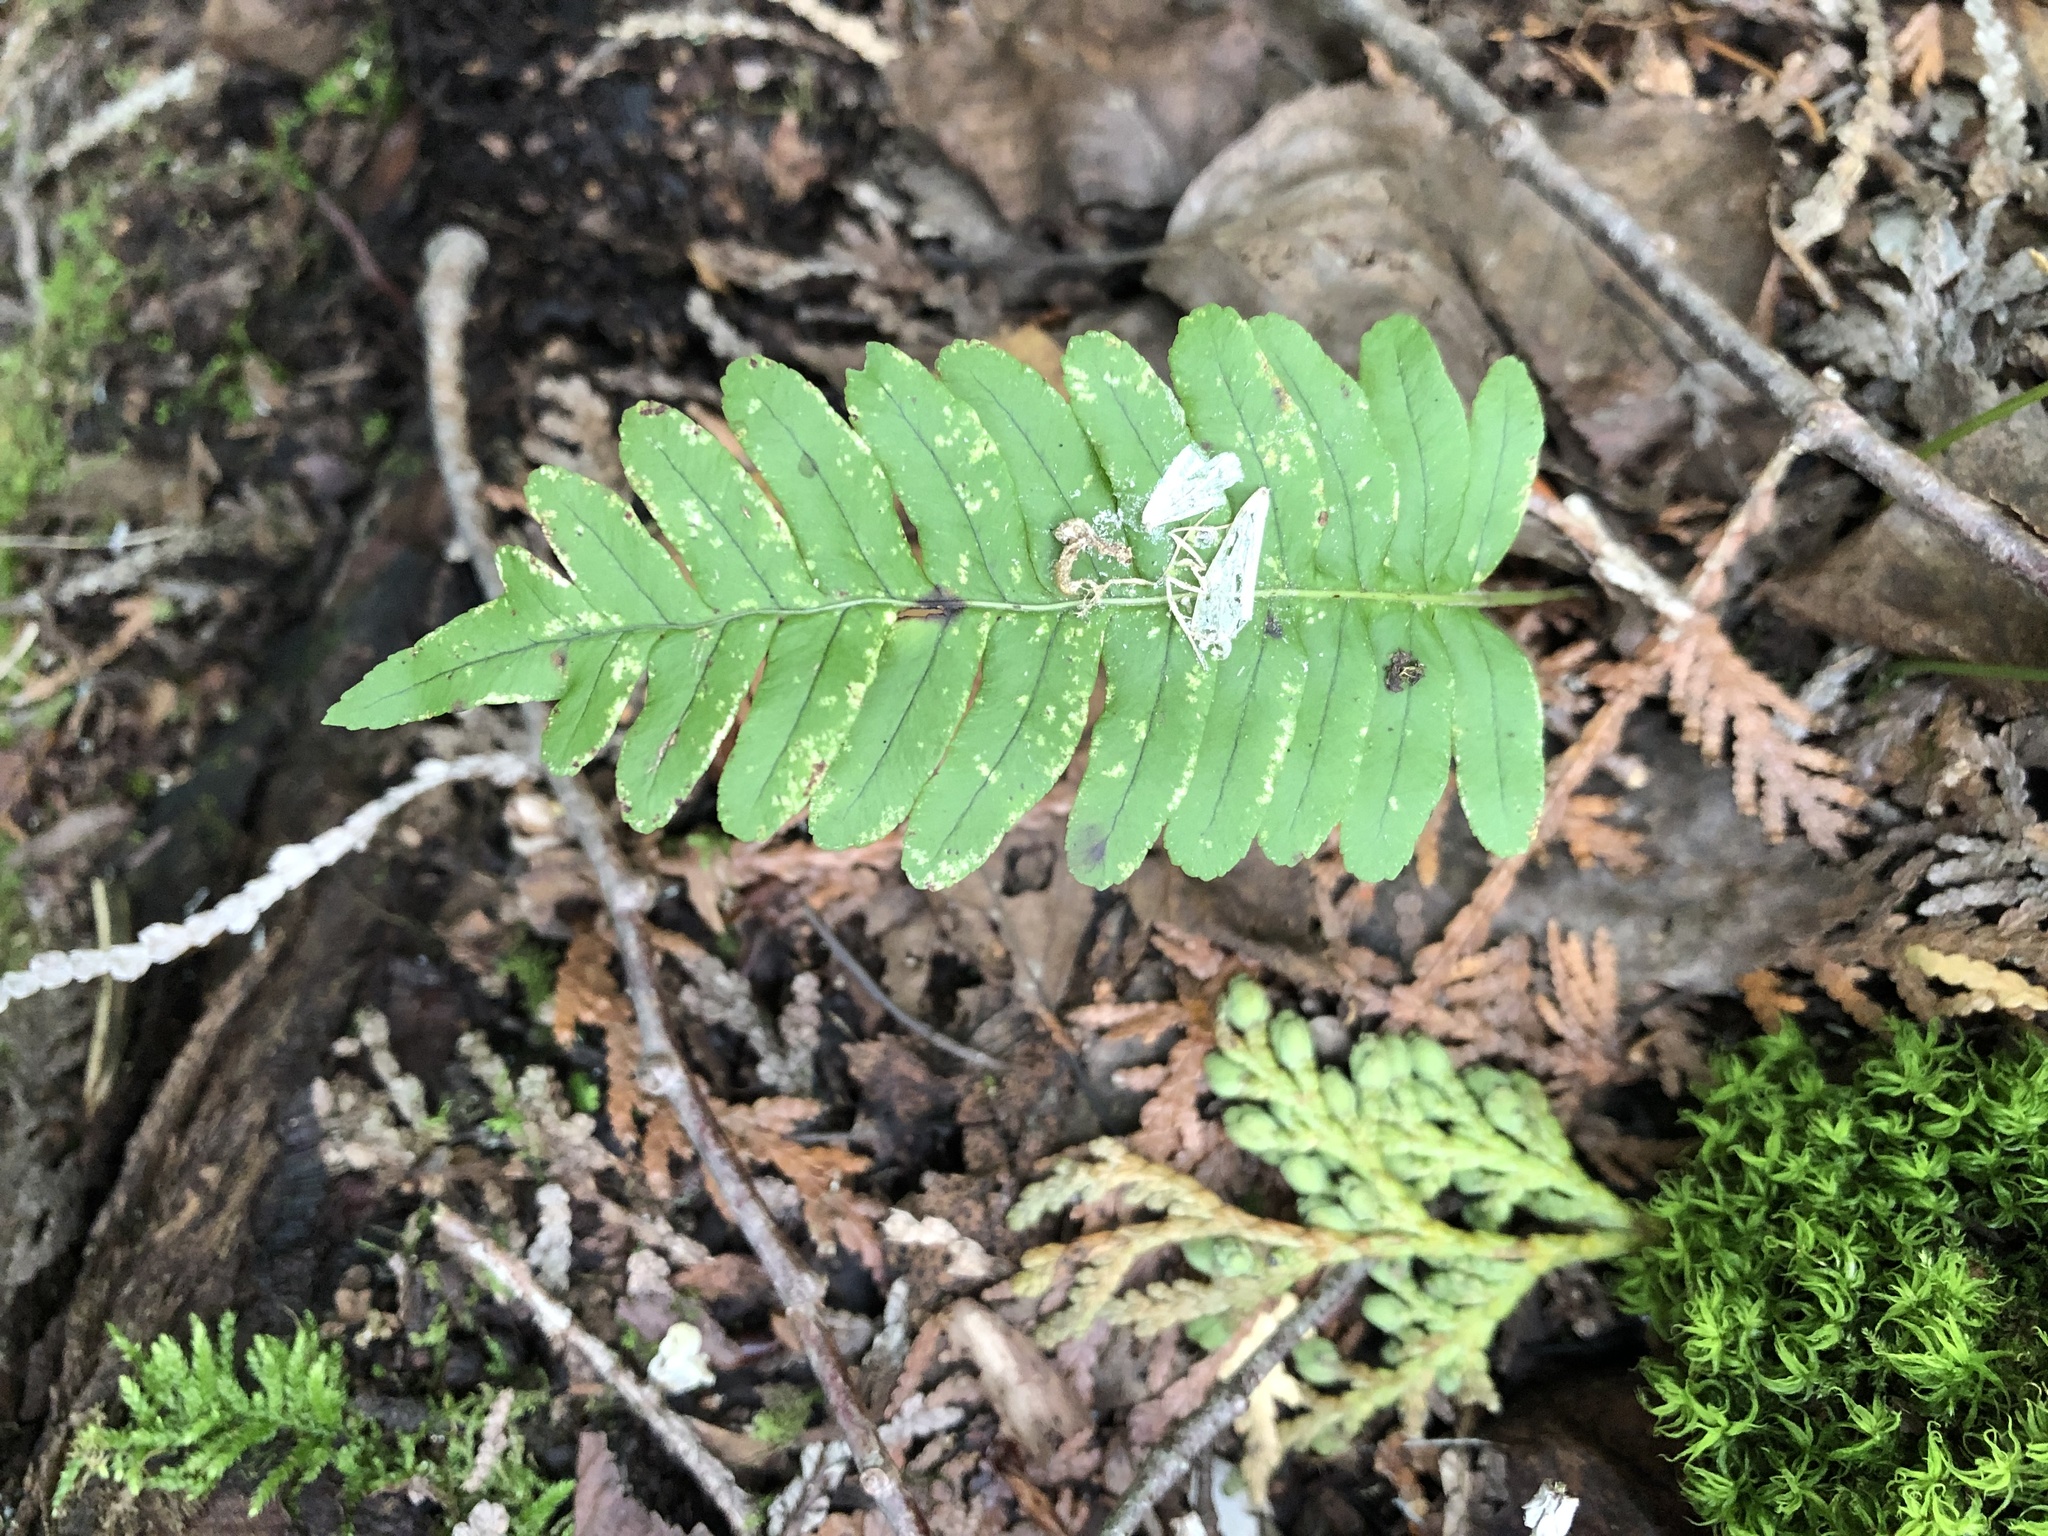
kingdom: Plantae
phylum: Tracheophyta
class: Polypodiopsida
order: Polypodiales
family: Polypodiaceae
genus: Polypodium
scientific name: Polypodium virginianum
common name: American wall fern
